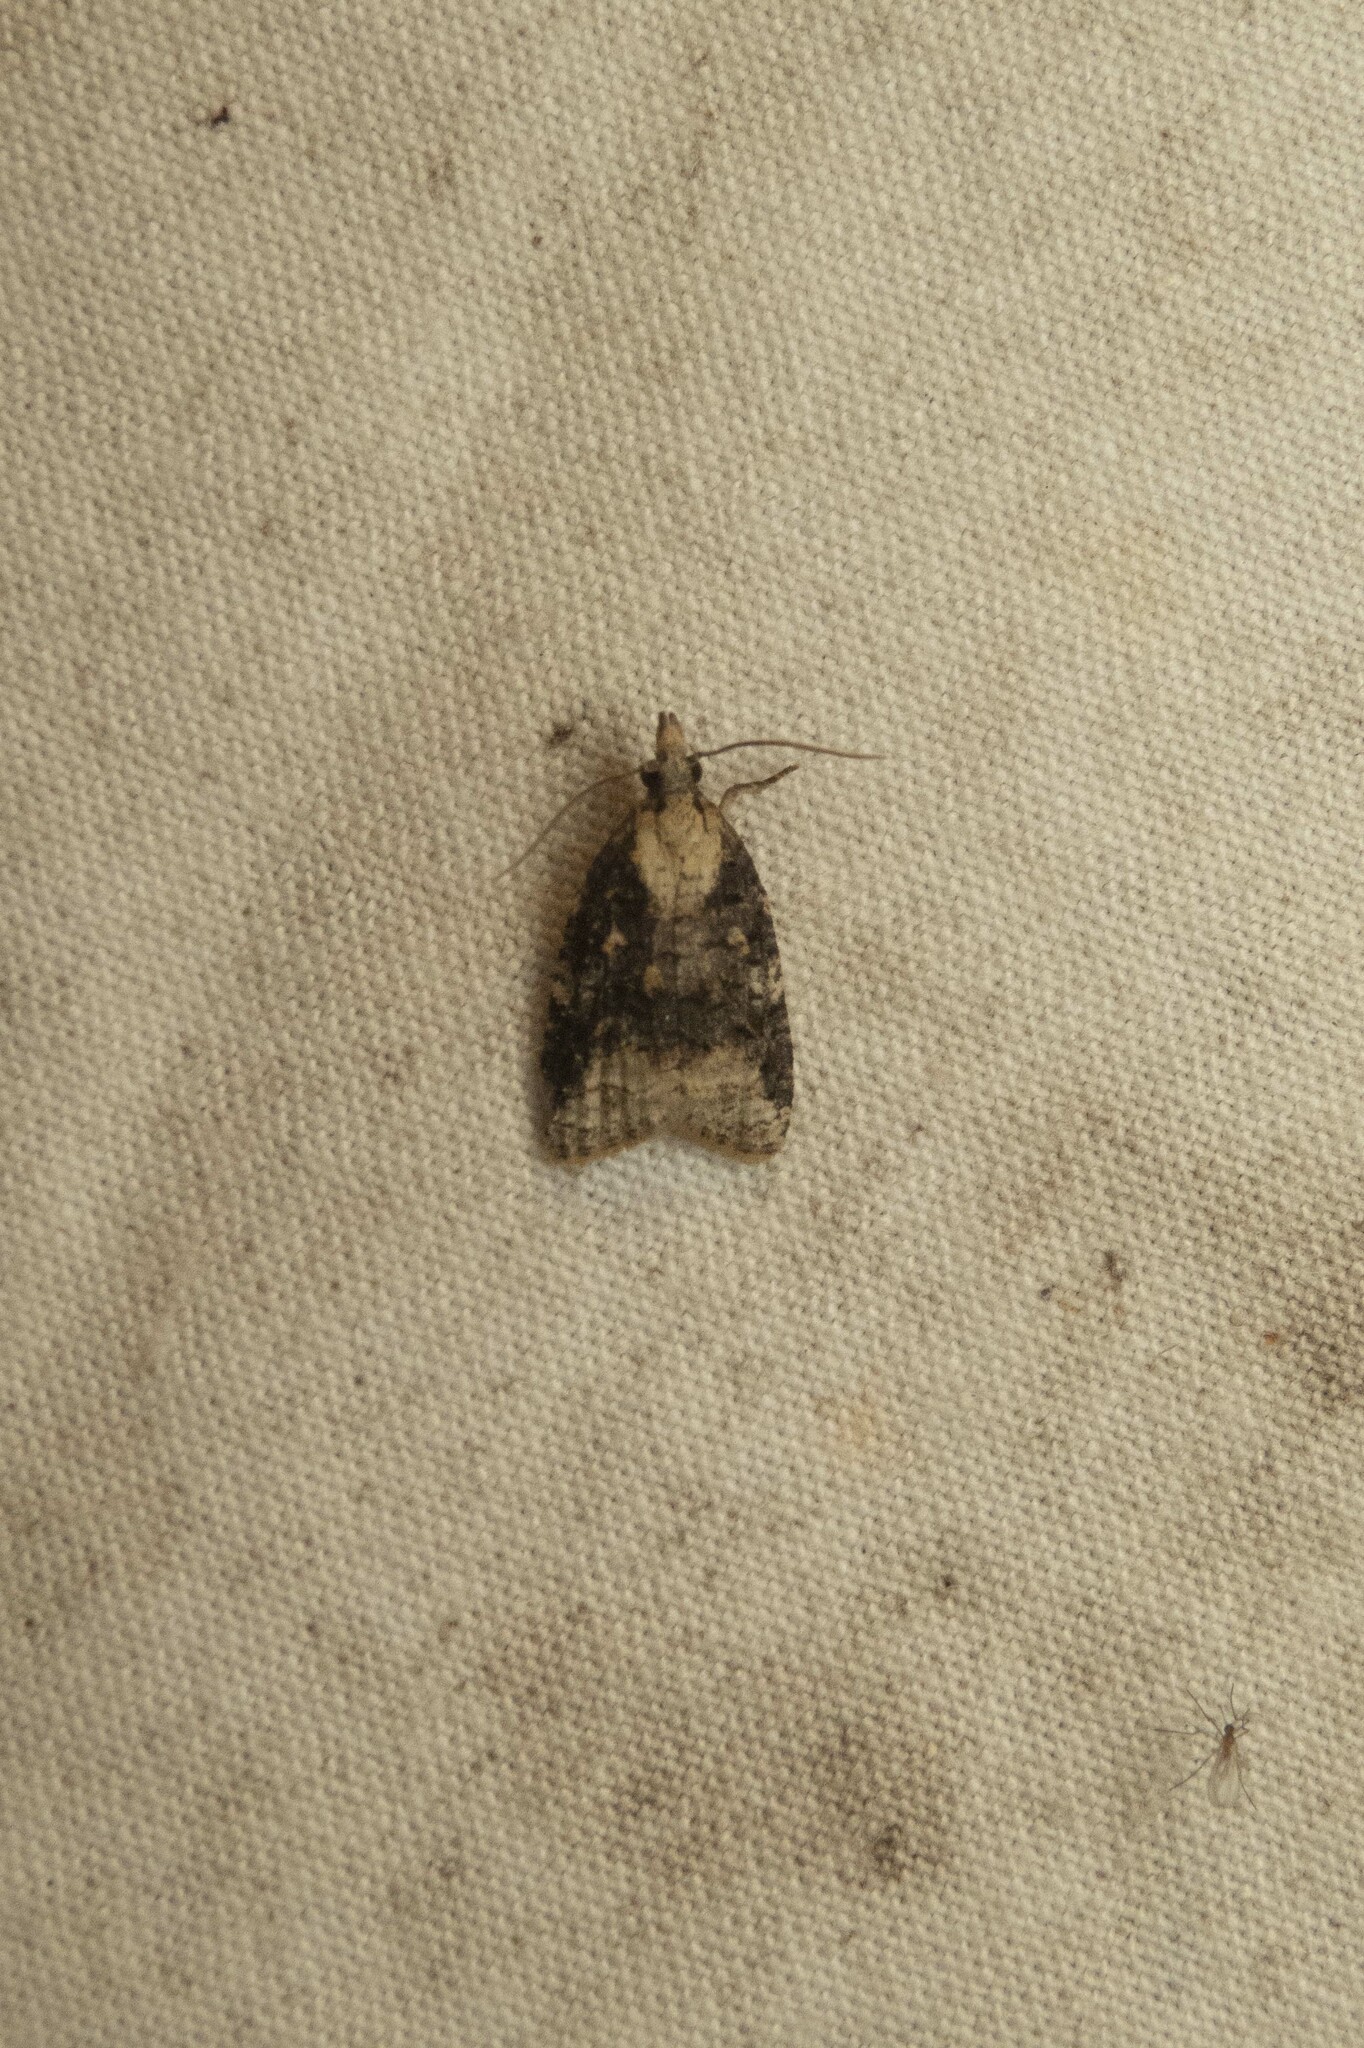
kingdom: Animalia
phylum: Arthropoda
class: Insecta
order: Lepidoptera
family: Tortricidae
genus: Platynota
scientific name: Platynota exasperatana
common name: Exasperating platynota moth
